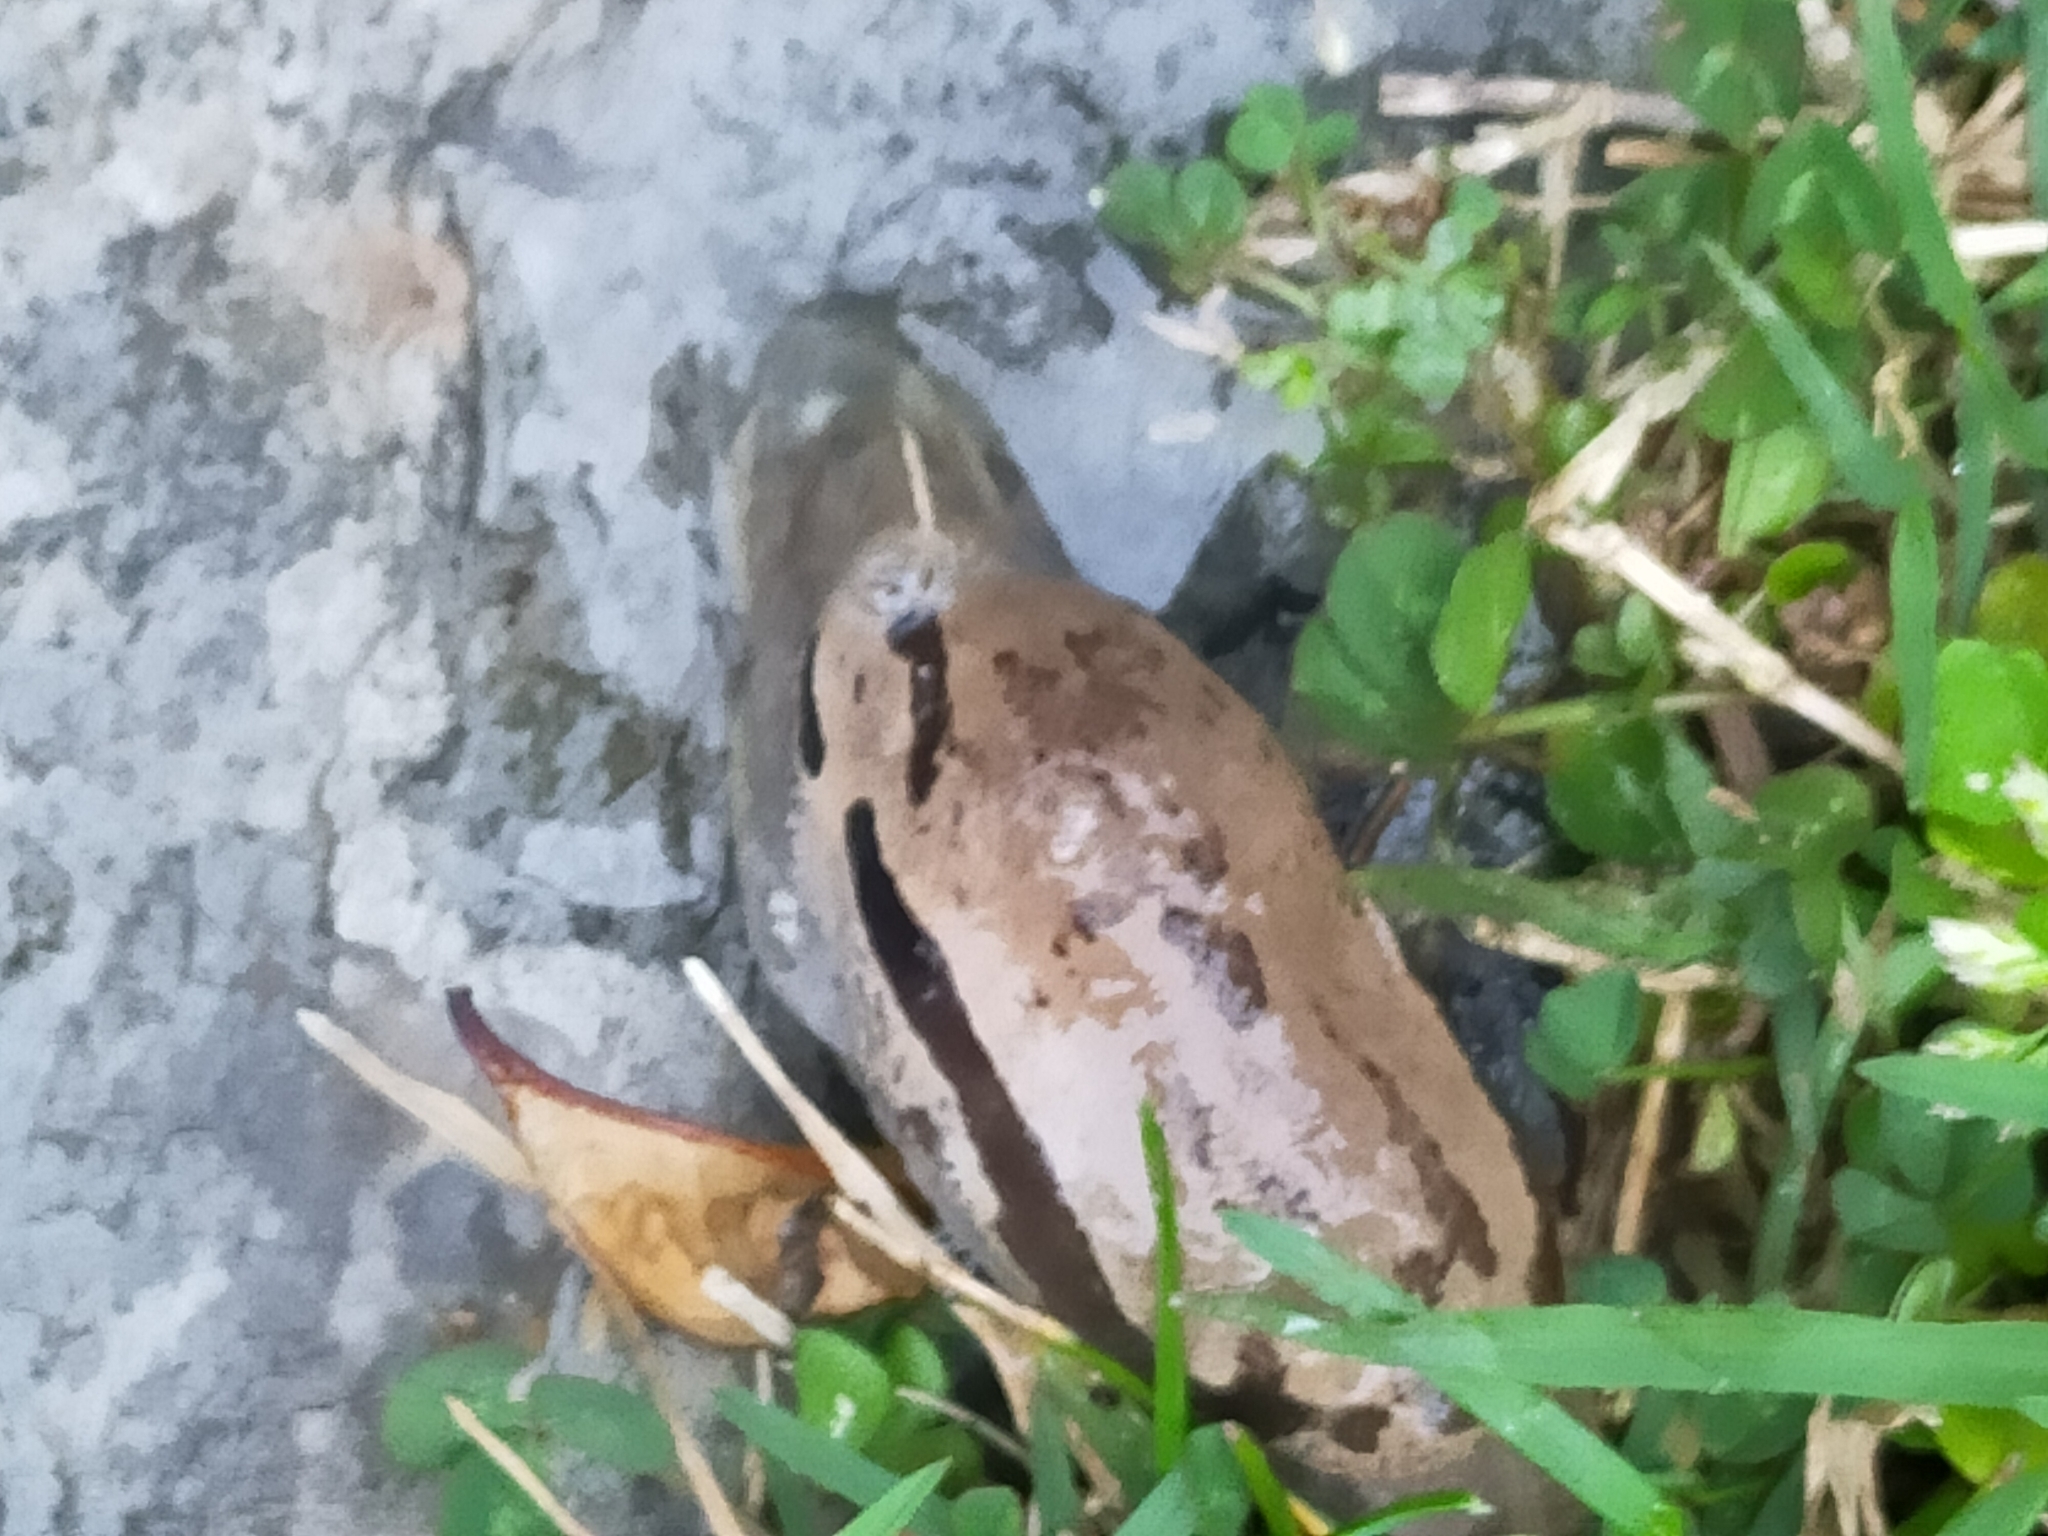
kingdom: Animalia
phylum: Mollusca
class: Gastropoda
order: Stylommatophora
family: Parmacellidae
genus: Drusia
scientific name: Drusia ibera
